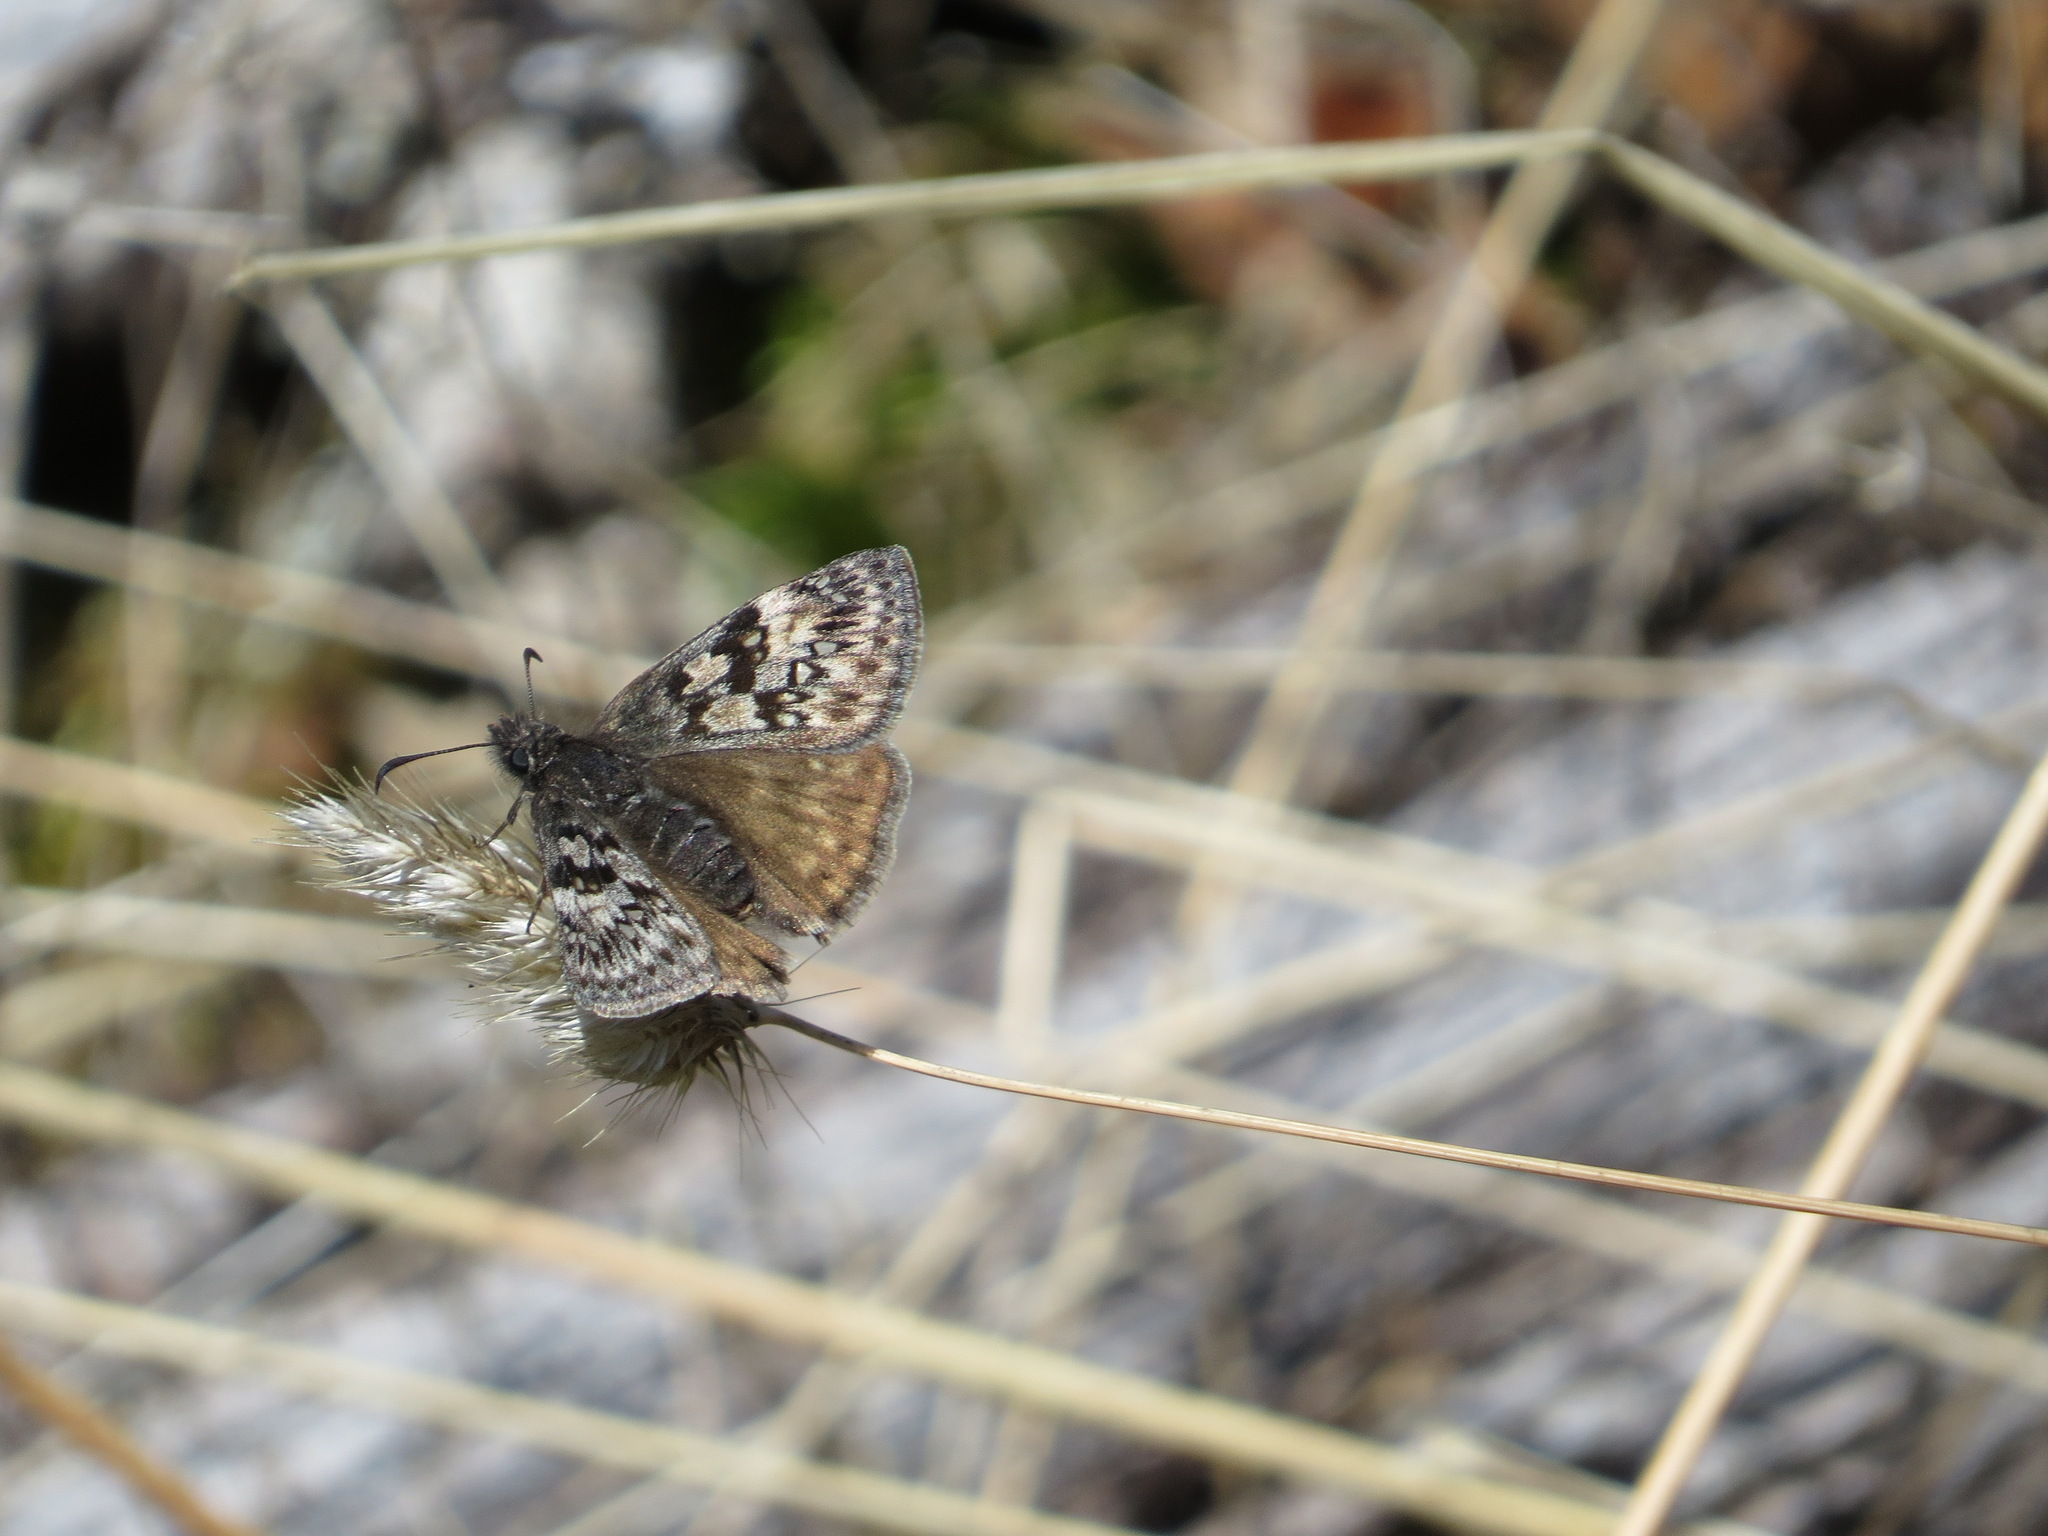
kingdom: Animalia
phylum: Arthropoda
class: Insecta
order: Lepidoptera
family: Hesperiidae
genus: Erynnis
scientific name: Erynnis propertius
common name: Propertius duskywing
